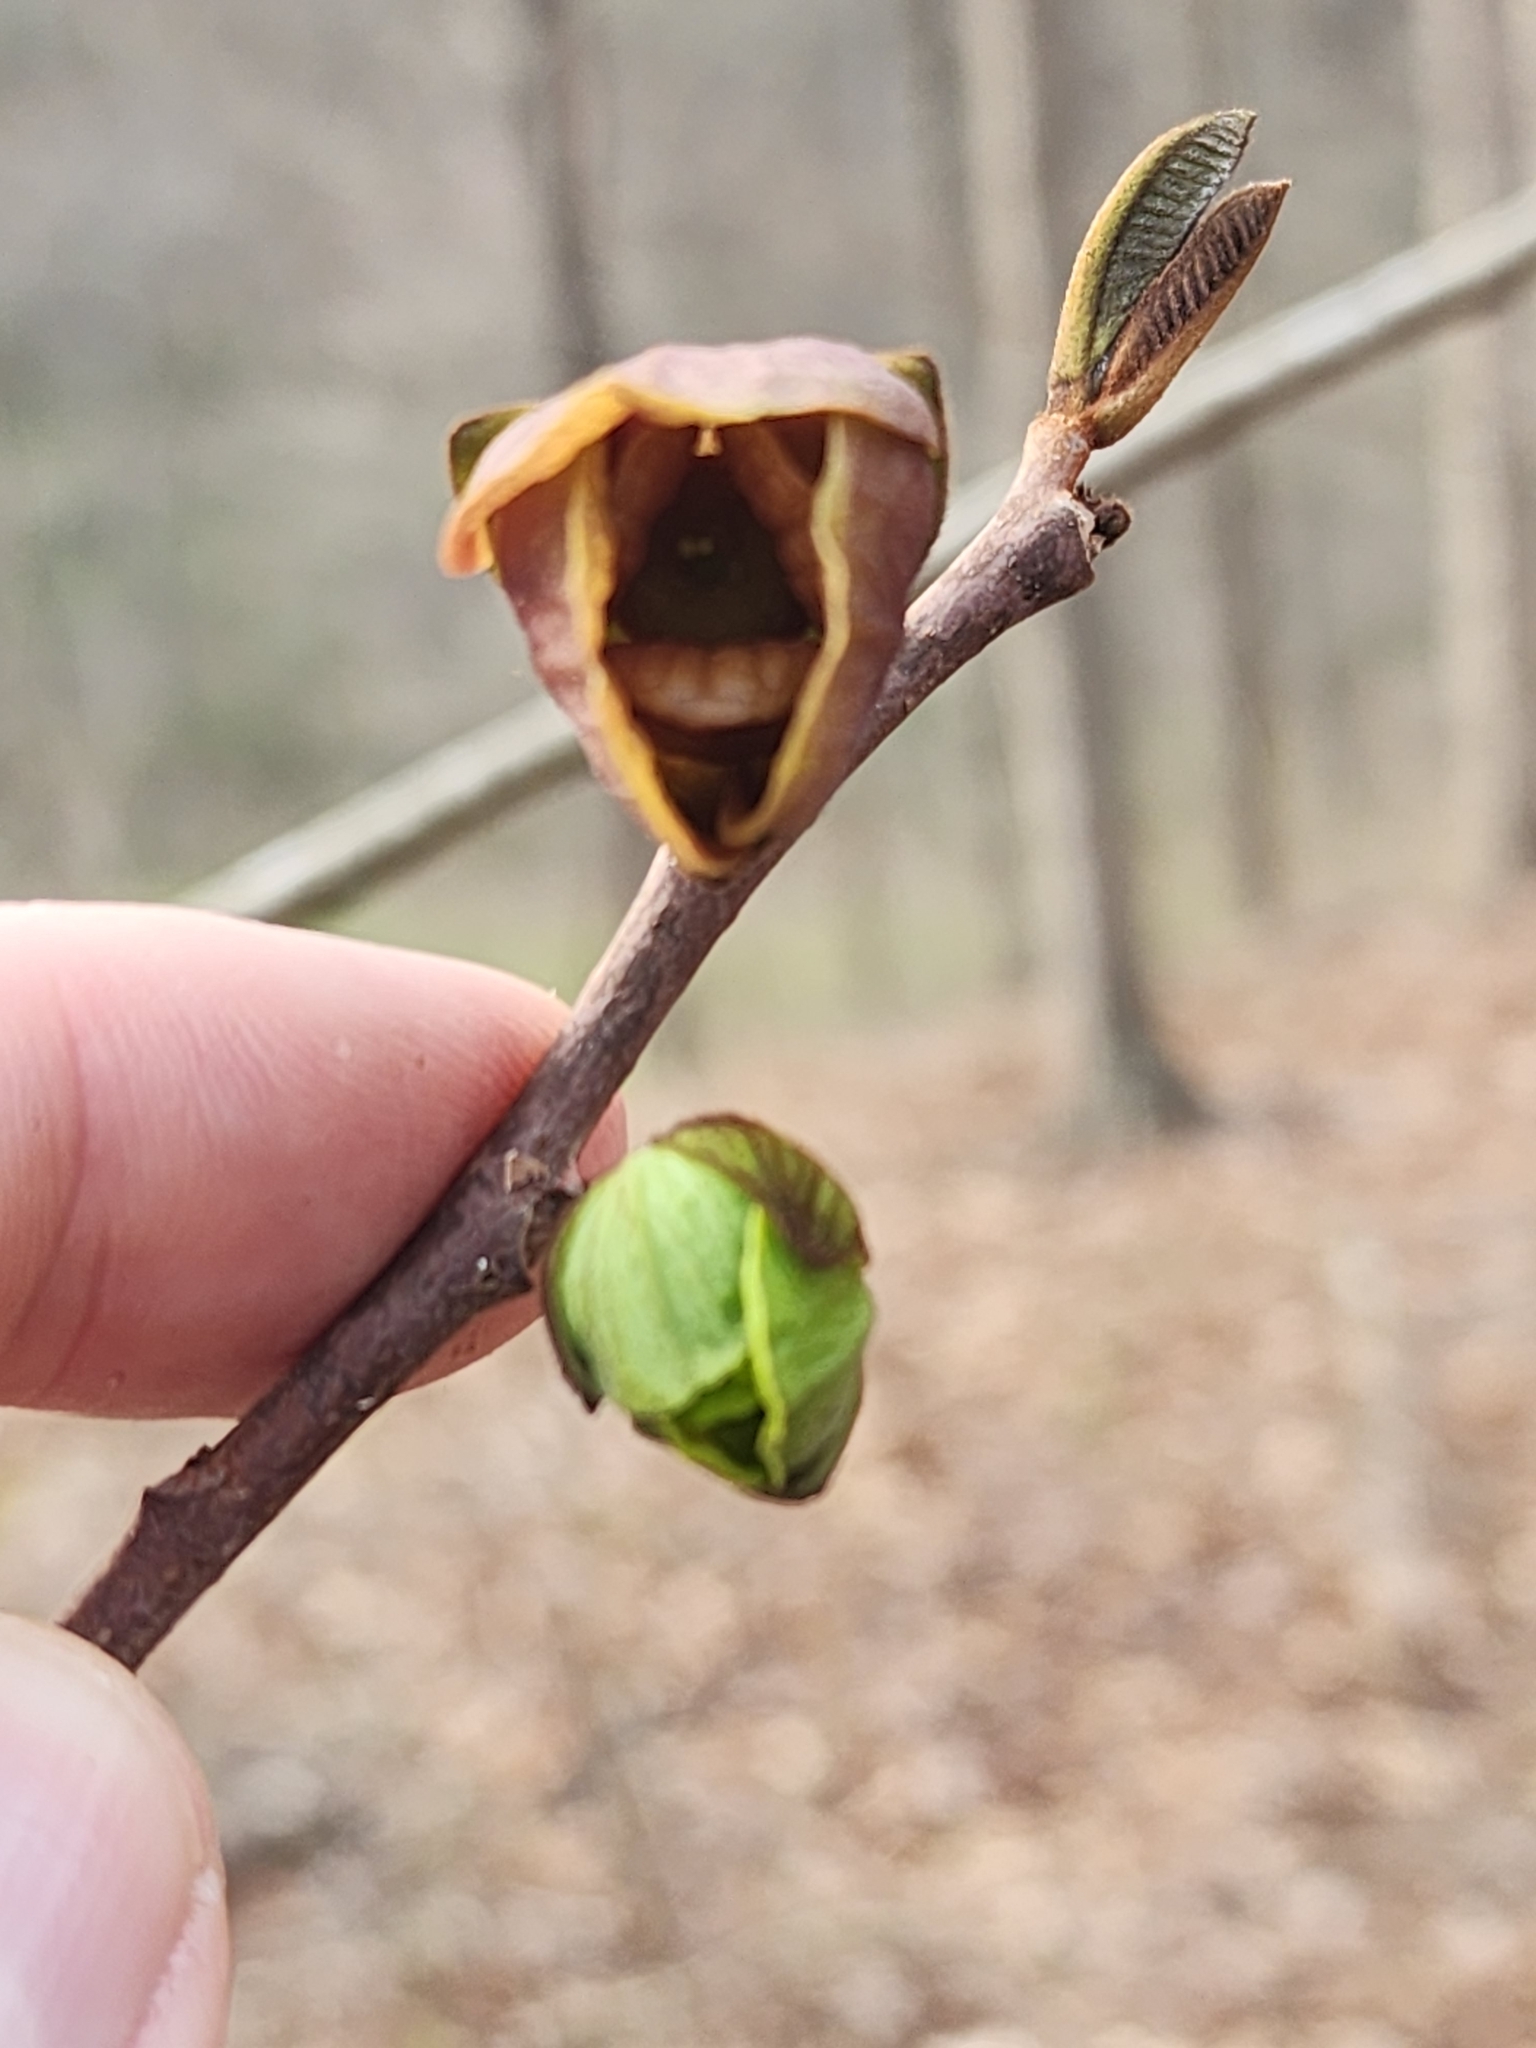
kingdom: Plantae
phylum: Tracheophyta
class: Magnoliopsida
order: Magnoliales
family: Annonaceae
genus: Asimina
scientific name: Asimina triloba
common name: Dog-banana
